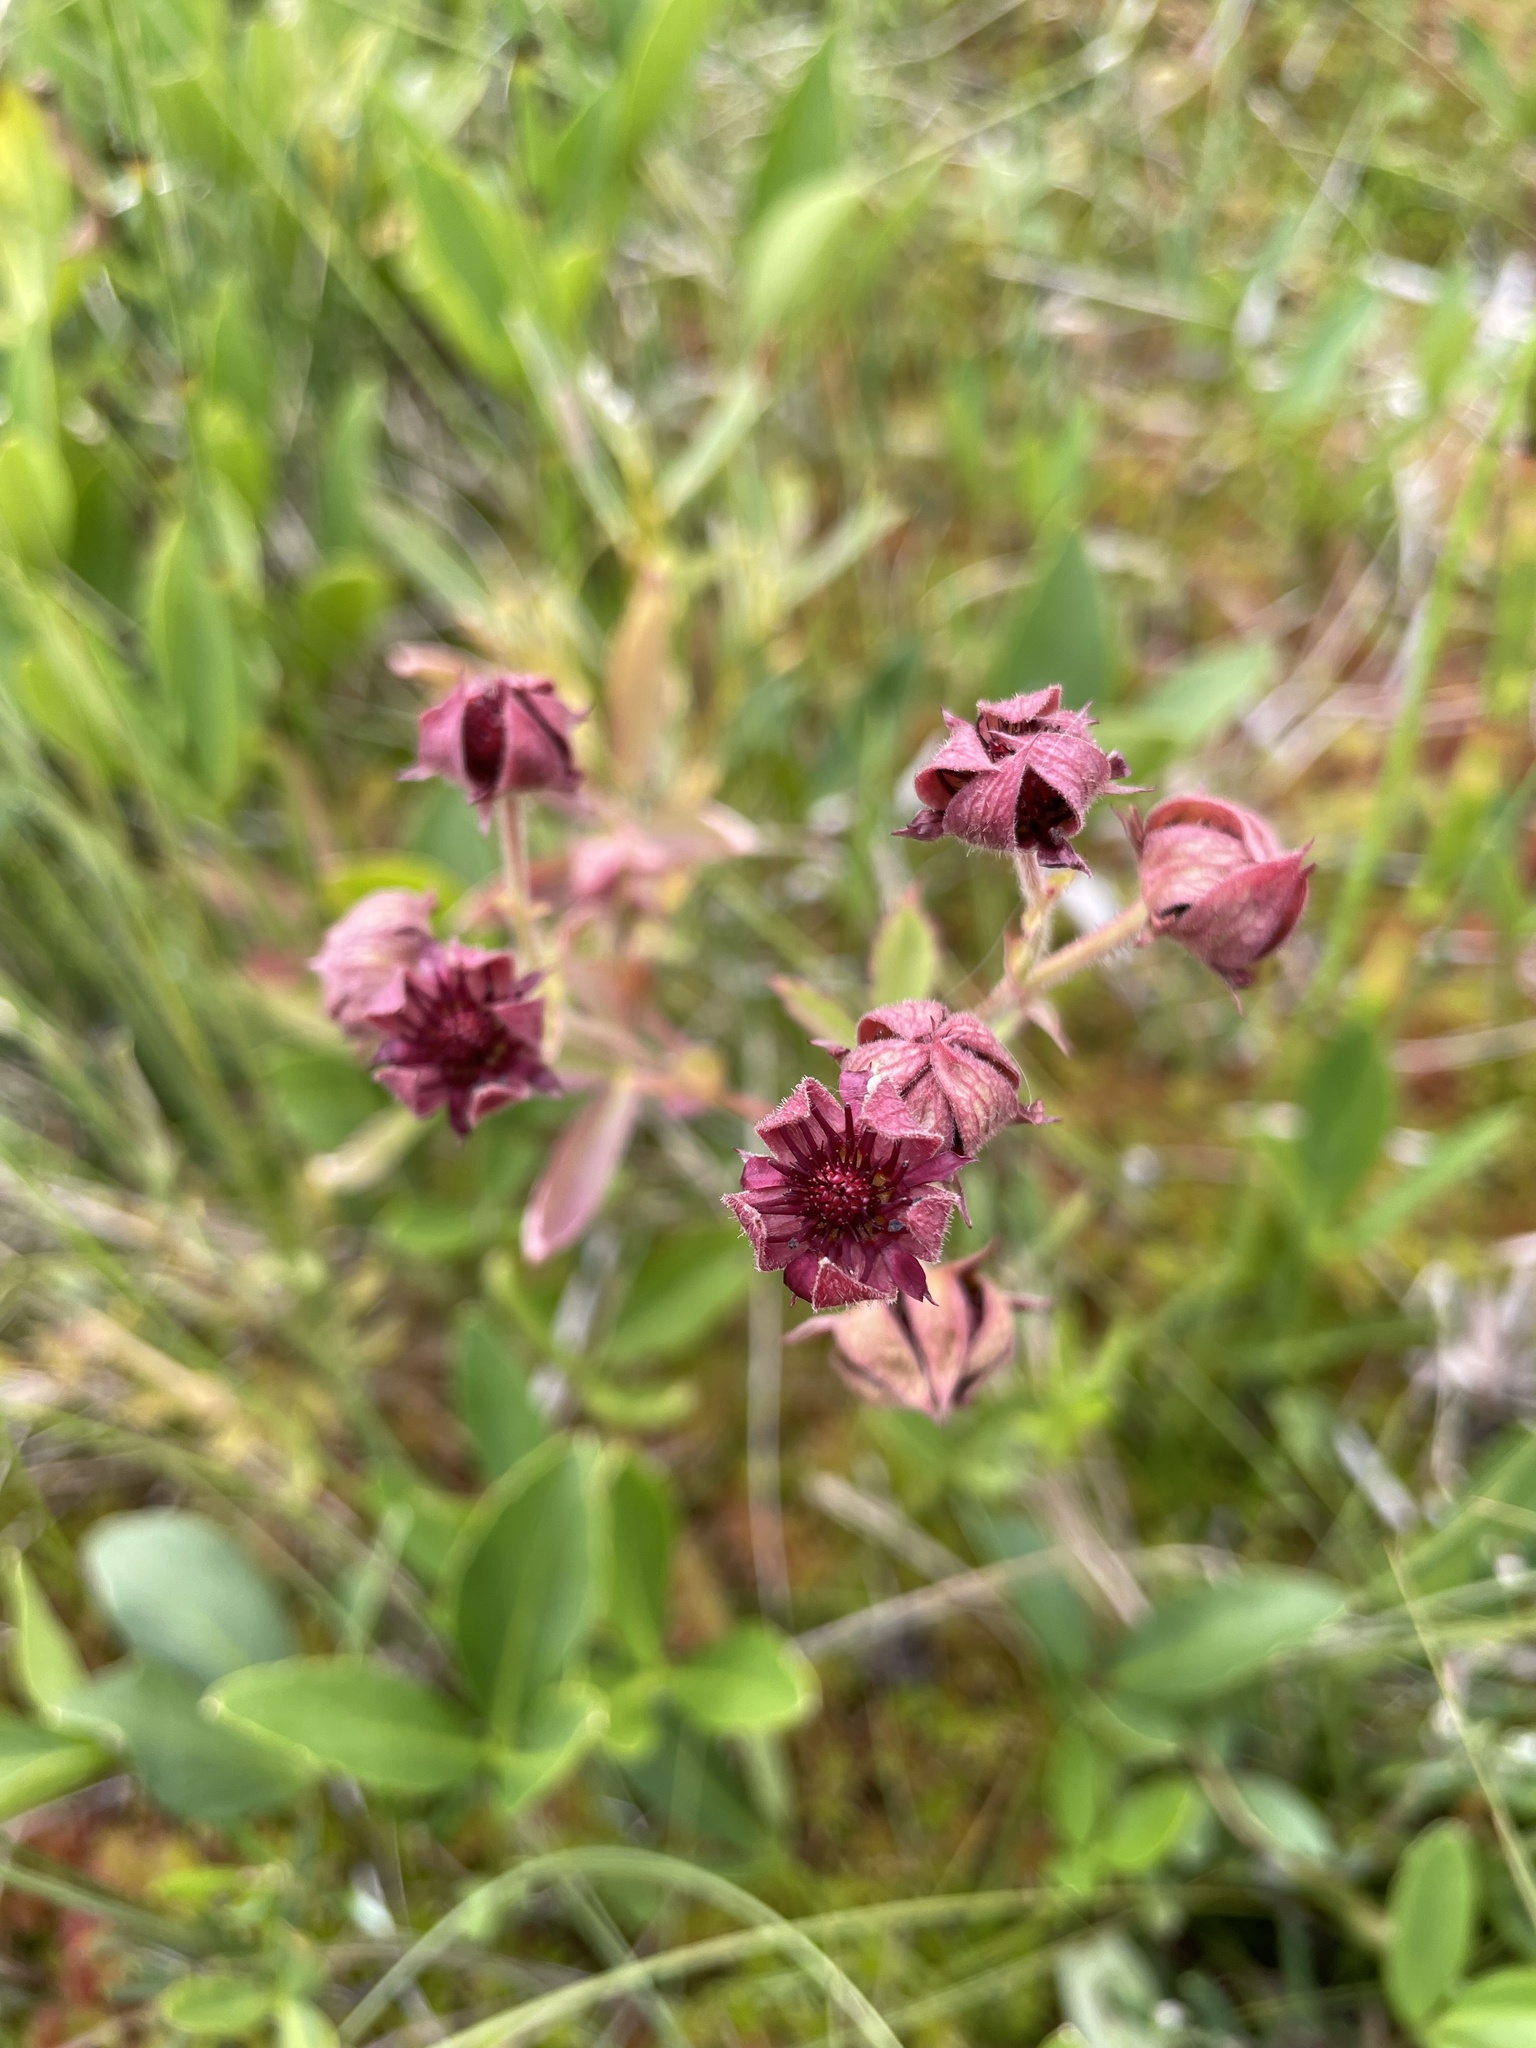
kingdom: Plantae
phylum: Tracheophyta
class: Magnoliopsida
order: Rosales
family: Rosaceae
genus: Comarum
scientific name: Comarum palustre
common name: Marsh cinquefoil
